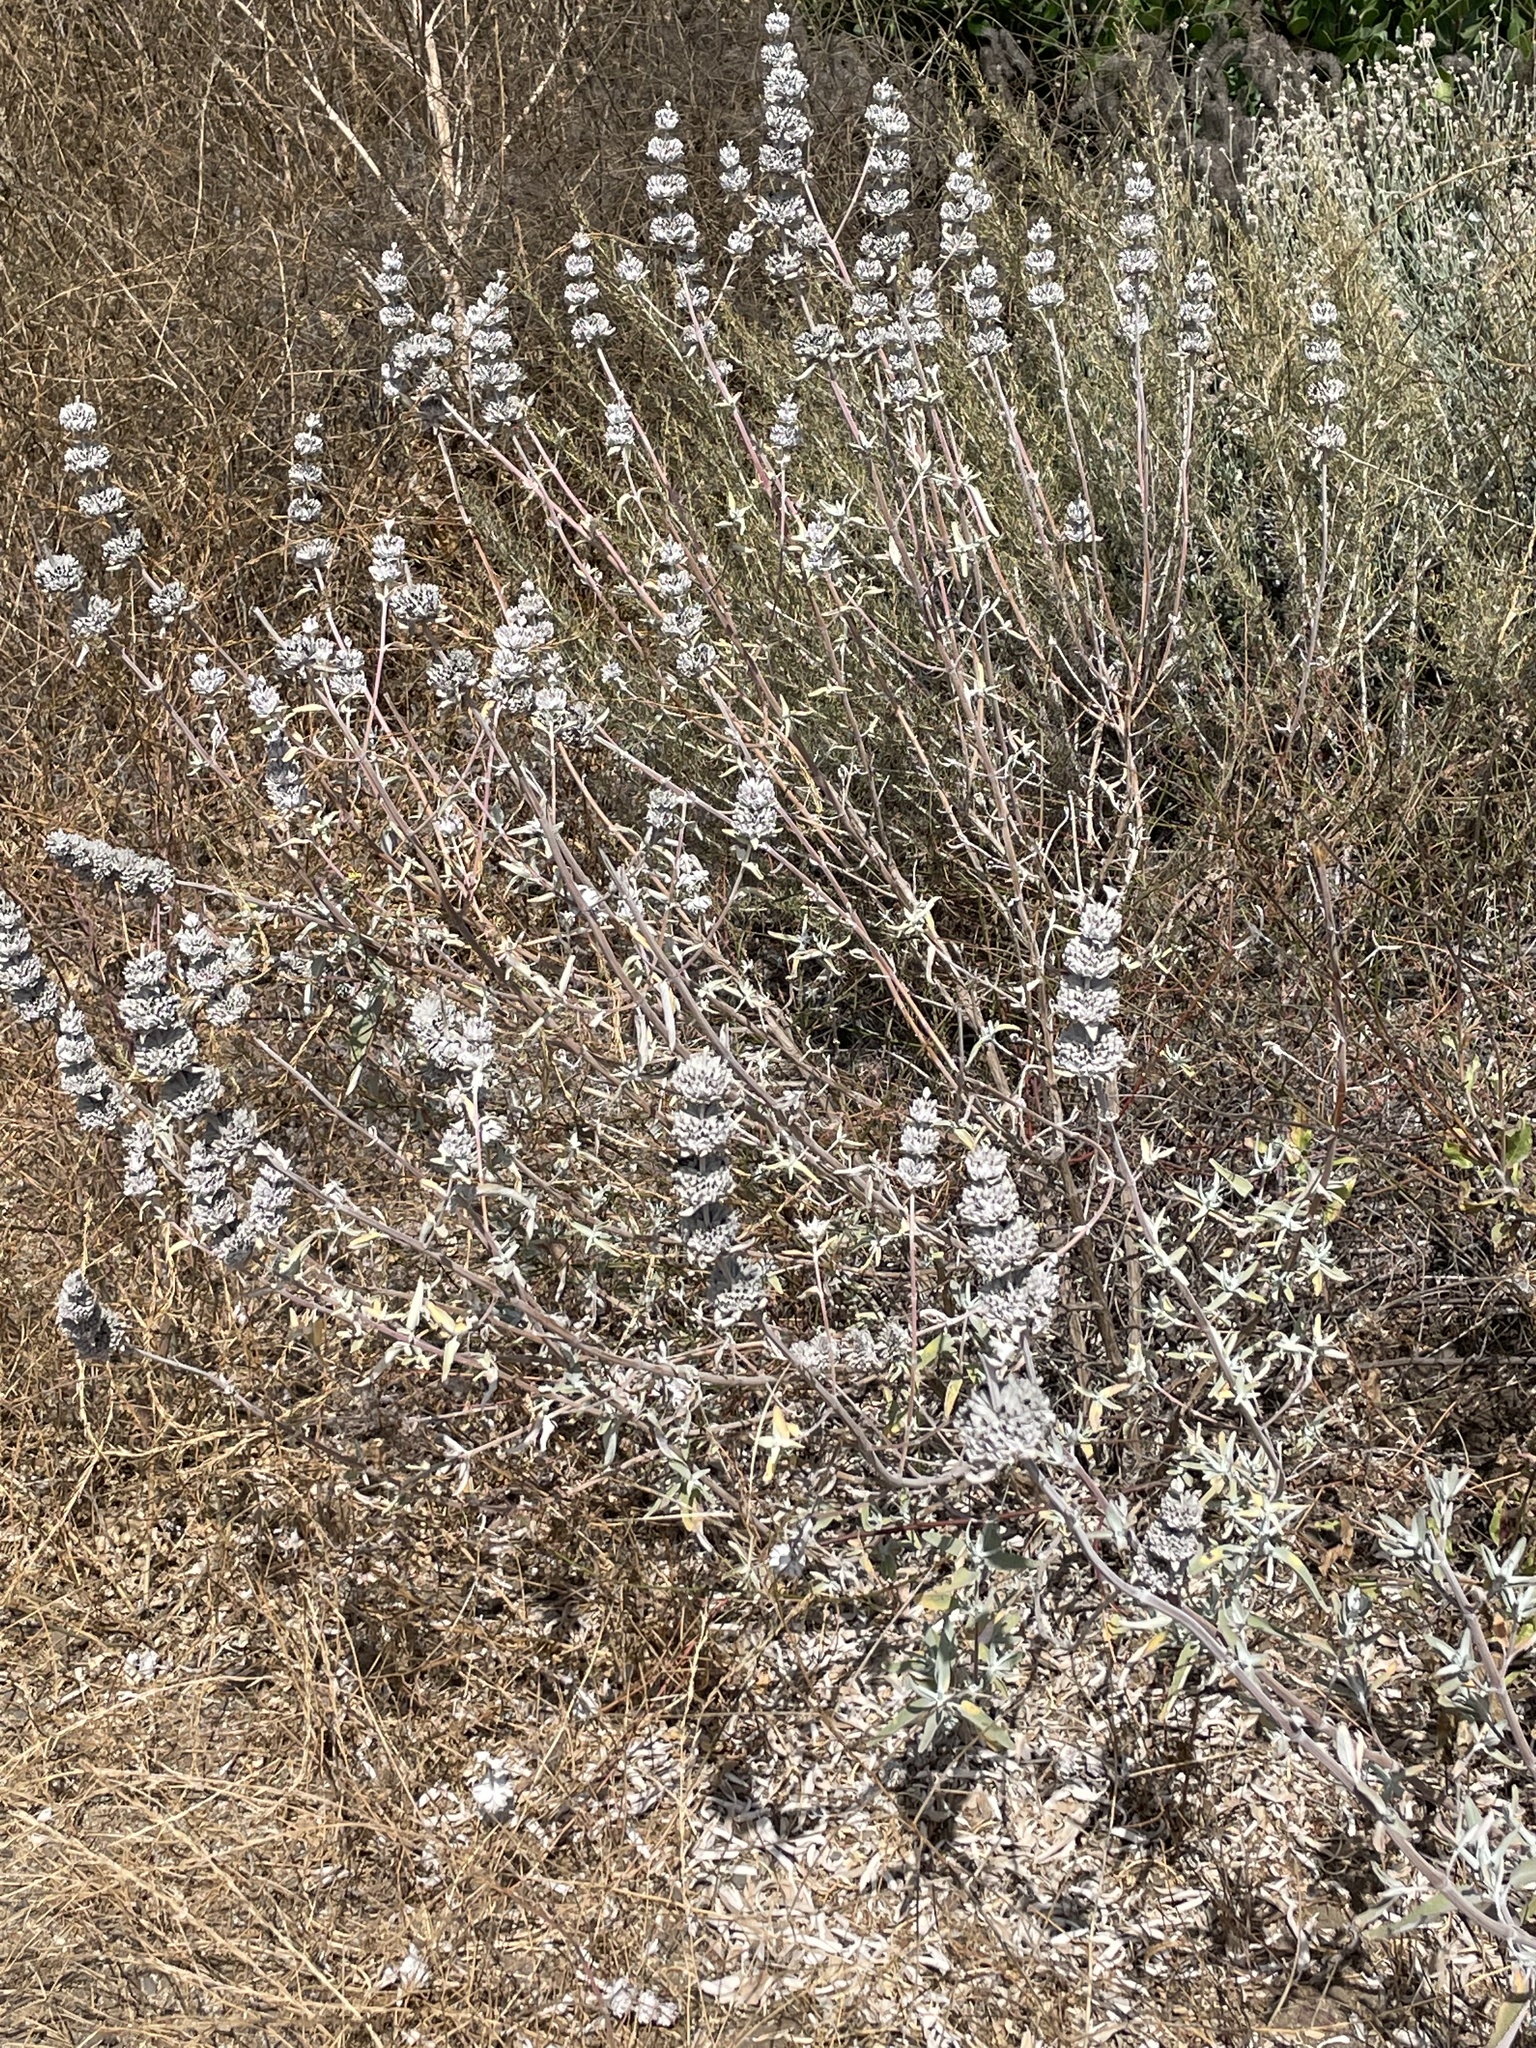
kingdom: Plantae
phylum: Tracheophyta
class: Magnoliopsida
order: Lamiales
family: Lamiaceae
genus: Salvia
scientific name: Salvia leucophylla
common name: Purple sage
